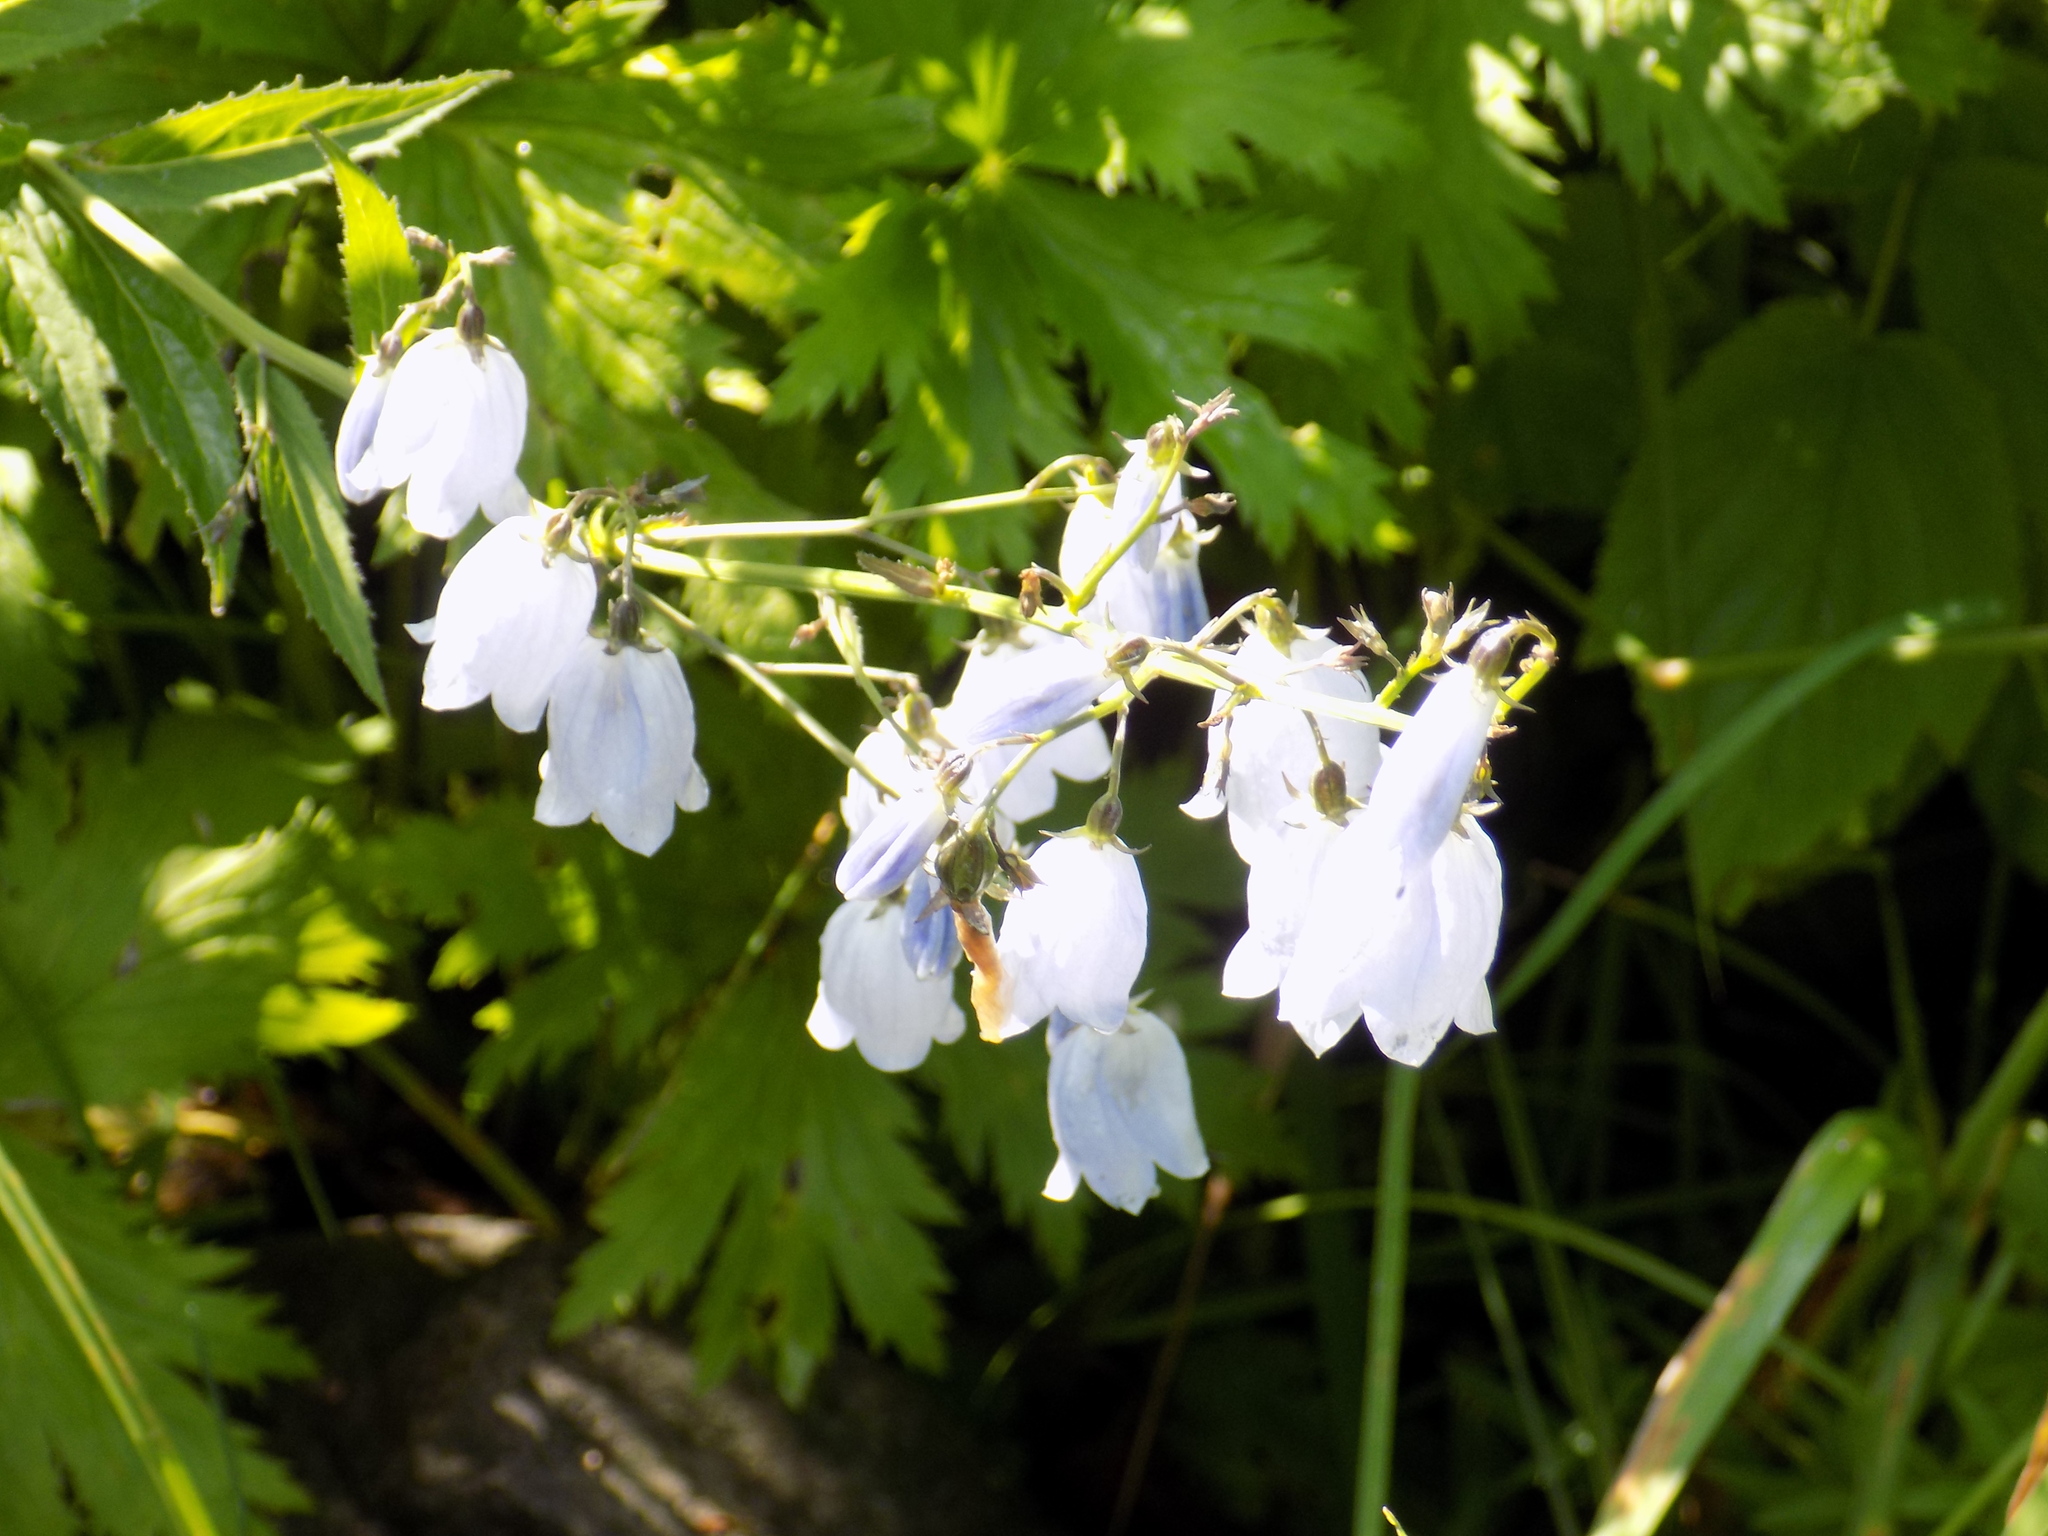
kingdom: Plantae
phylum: Tracheophyta
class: Magnoliopsida
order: Asterales
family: Campanulaceae
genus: Adenophora
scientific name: Adenophora liliifolia
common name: Lilyleaf ladybells
